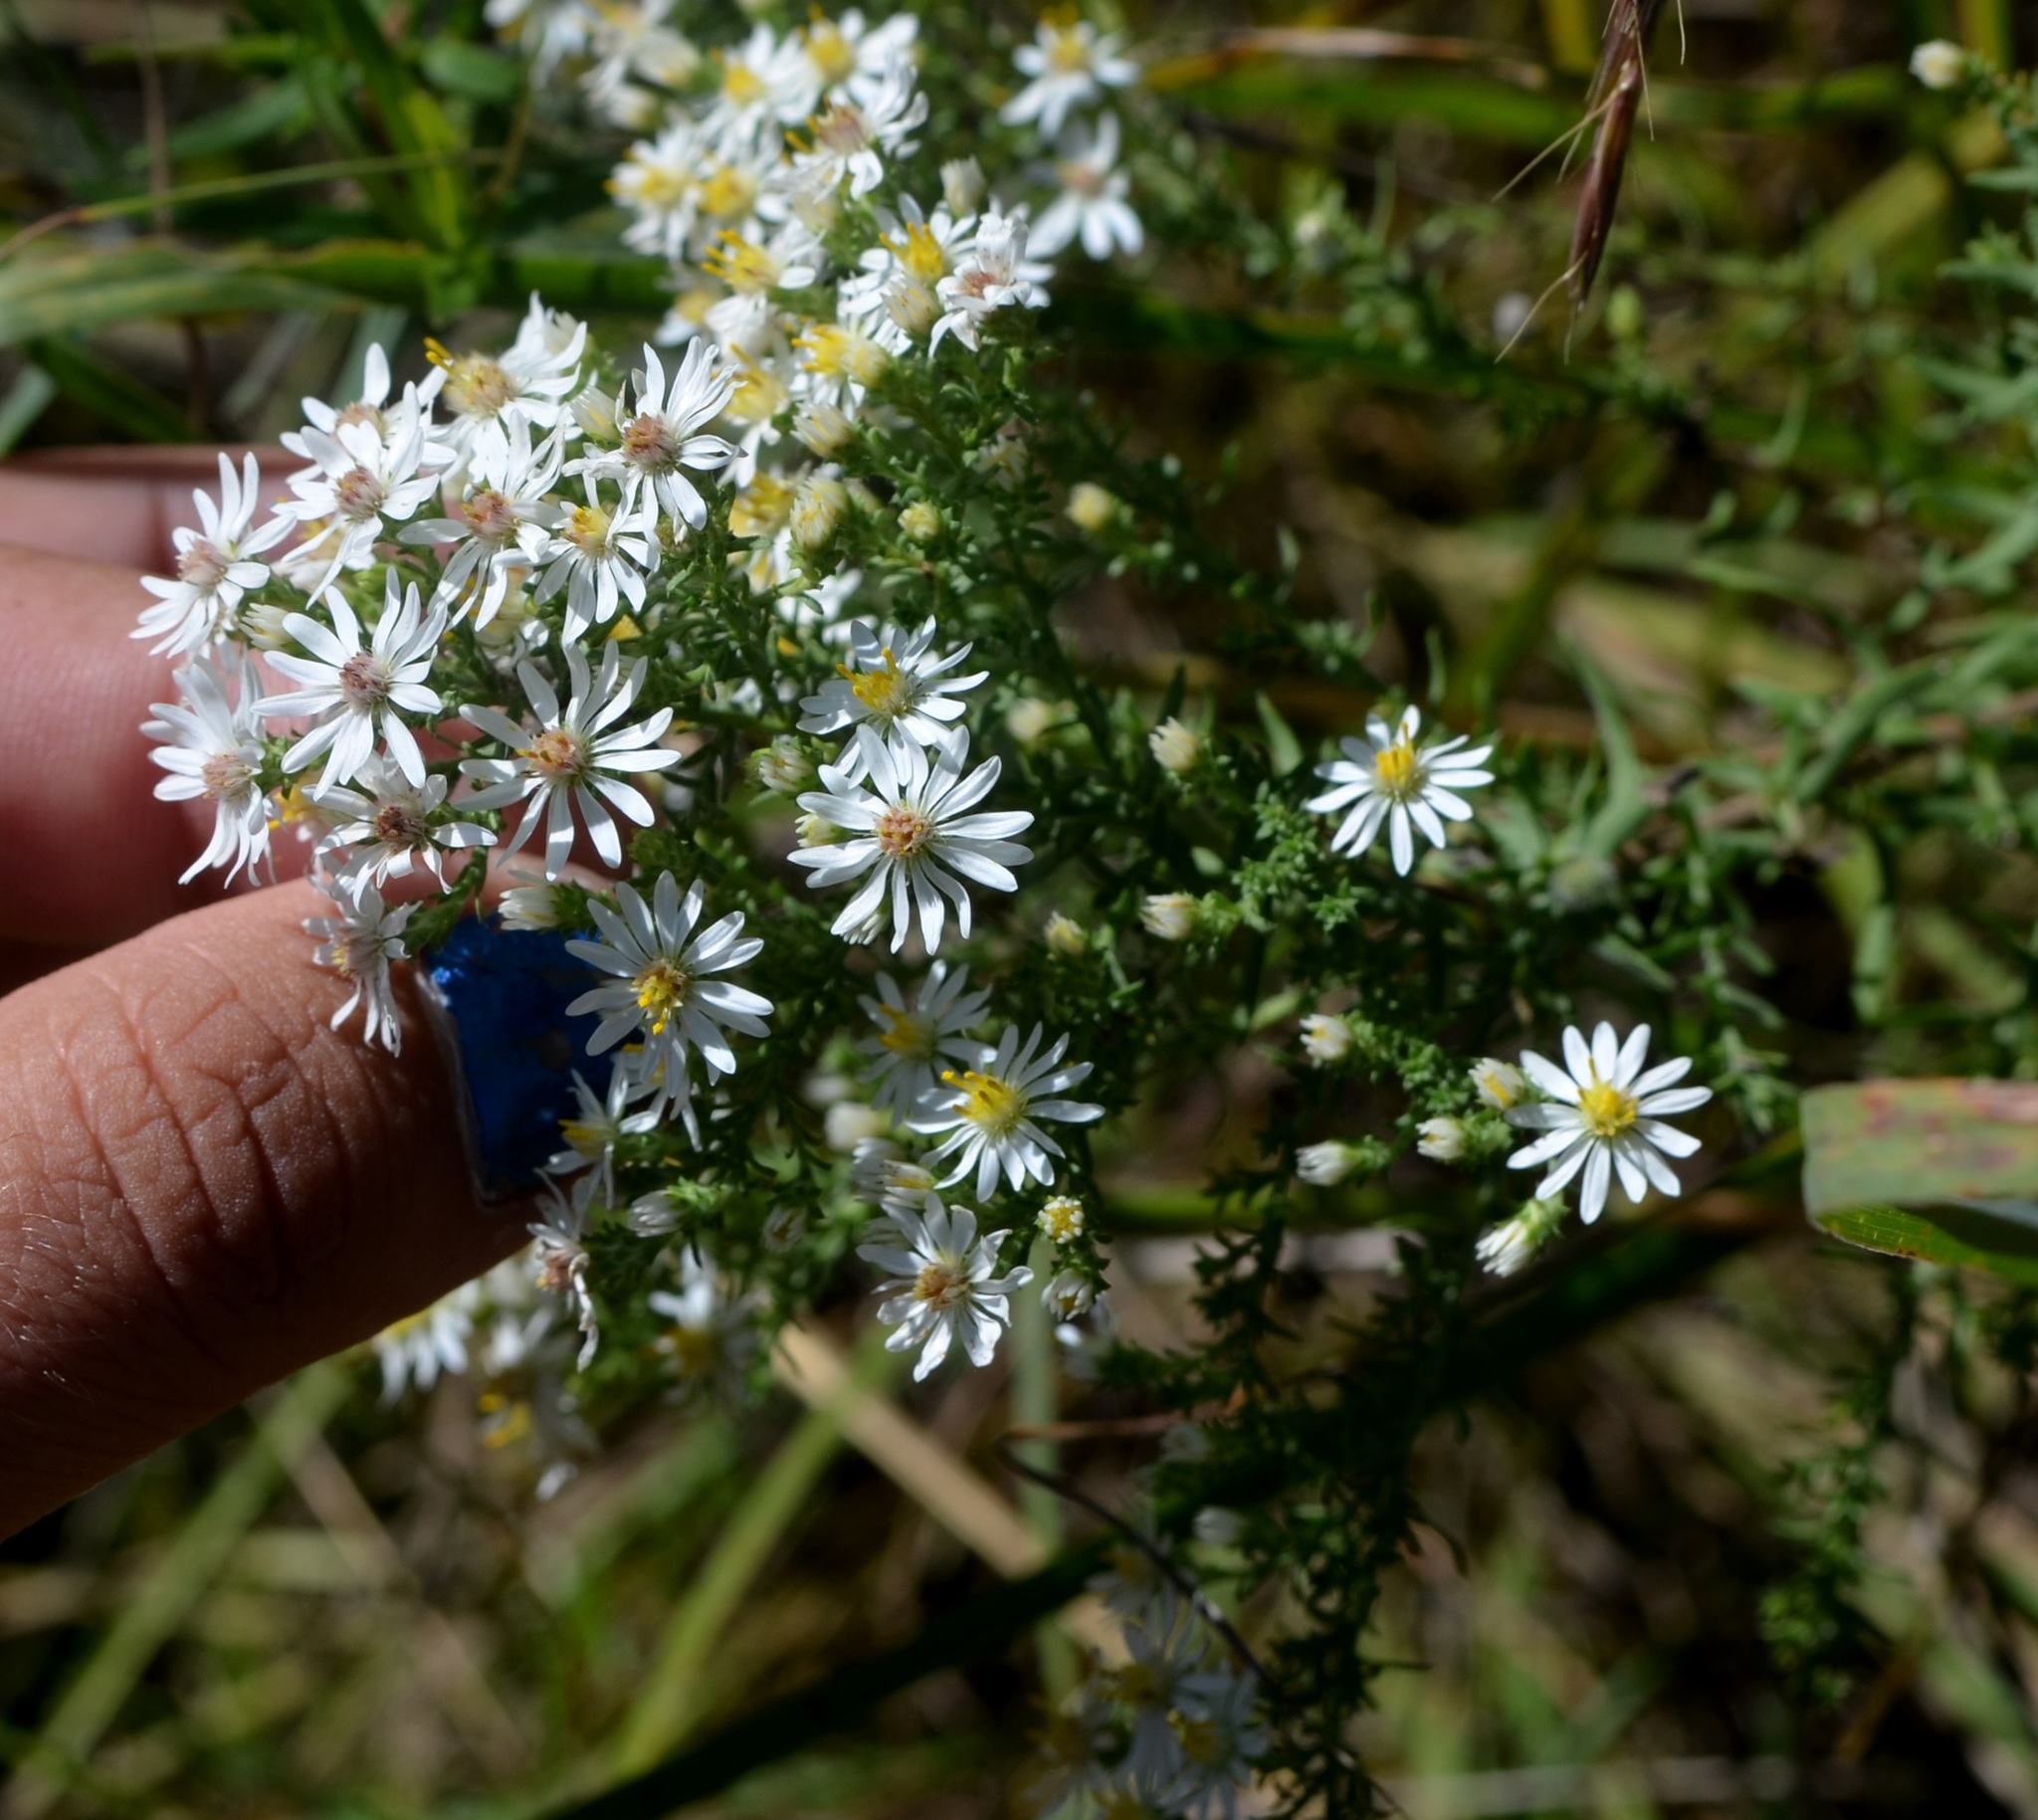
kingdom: Plantae
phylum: Tracheophyta
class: Magnoliopsida
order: Asterales
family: Asteraceae
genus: Symphyotrichum
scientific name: Symphyotrichum ericoides
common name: Heath aster
